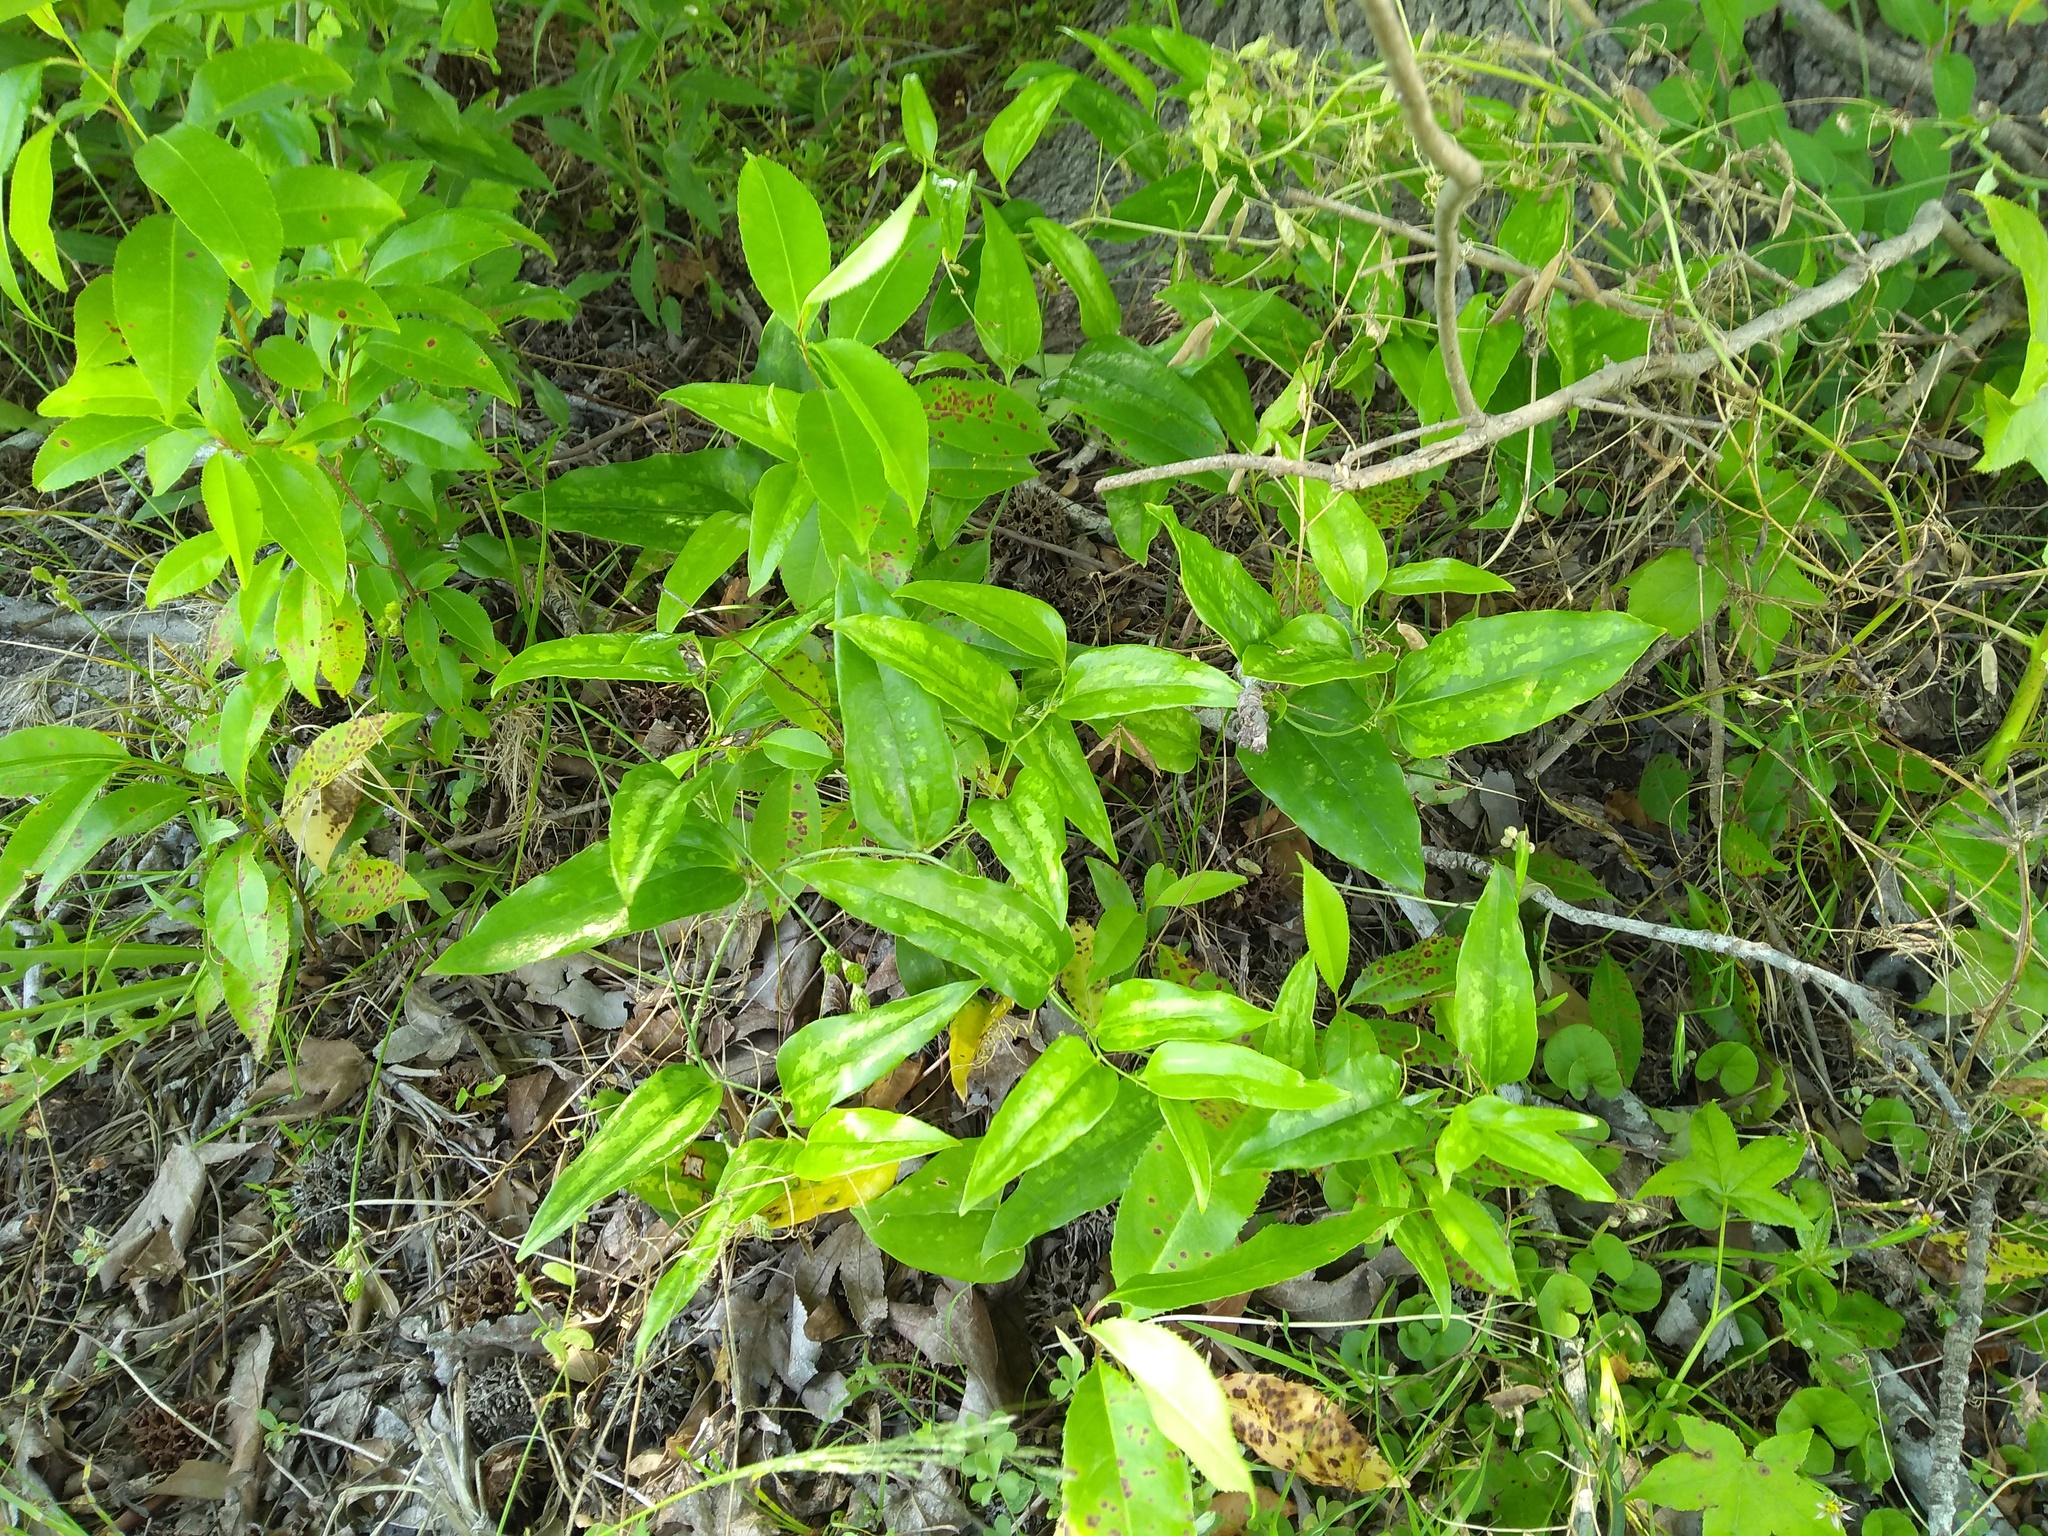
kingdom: Plantae
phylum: Tracheophyta
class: Liliopsida
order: Liliales
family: Smilacaceae
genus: Smilax
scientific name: Smilax maritima
